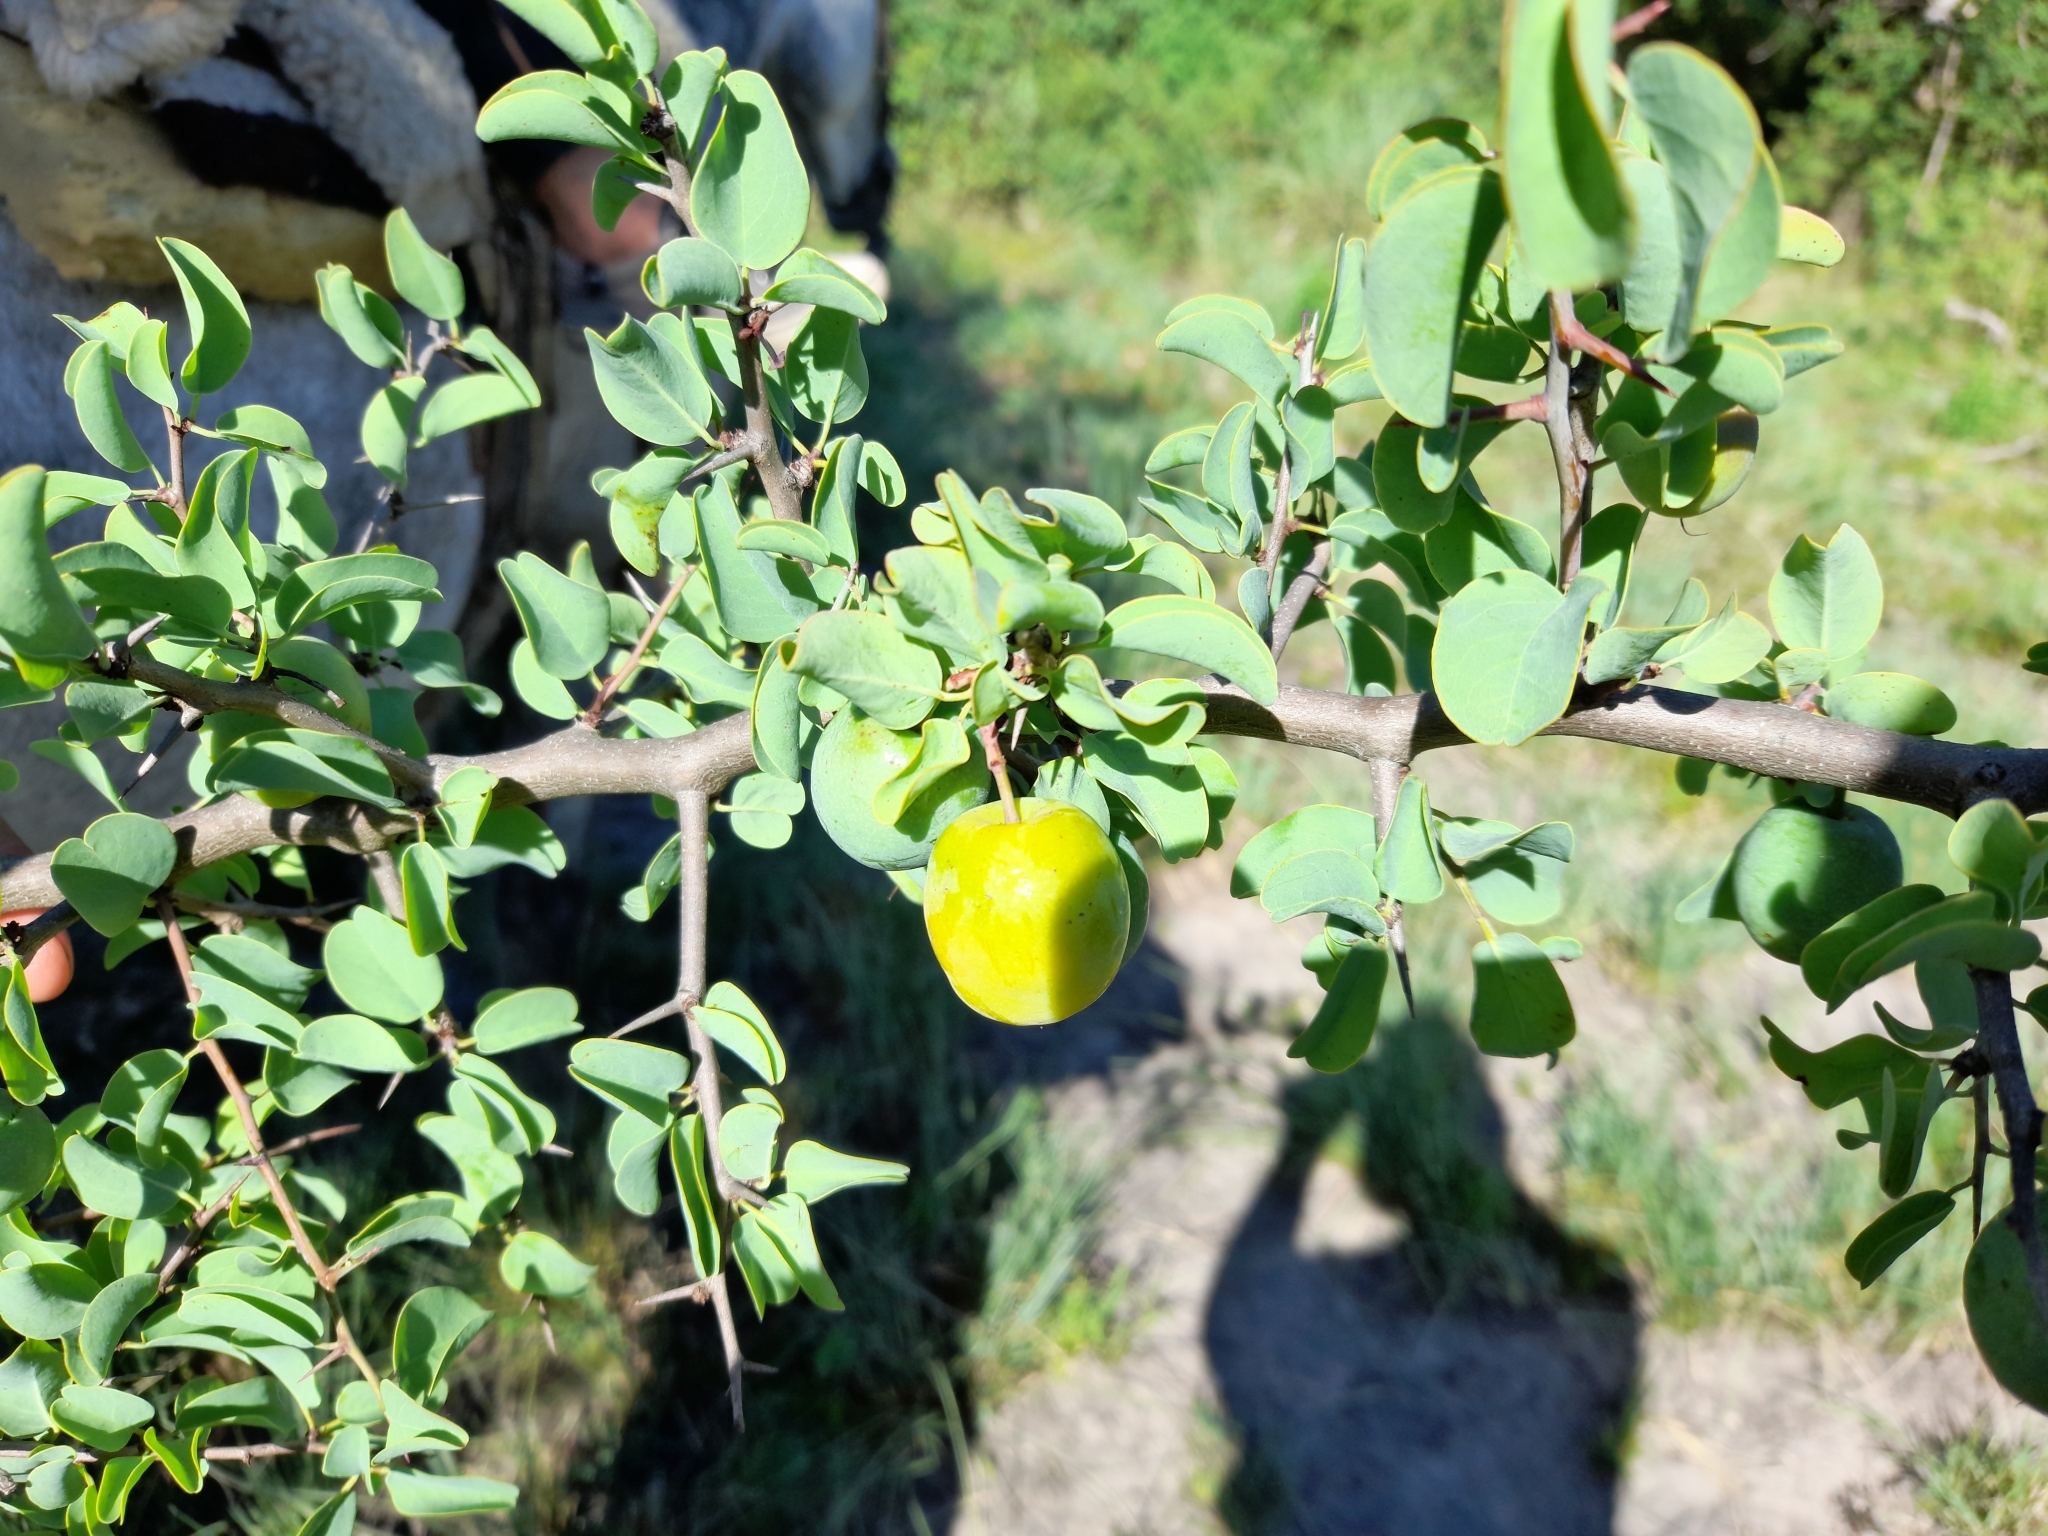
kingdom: Plantae
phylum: Tracheophyta
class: Magnoliopsida
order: Santalales
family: Ximeniaceae
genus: Ximenia
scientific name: Ximenia americana
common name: Tallowwood
